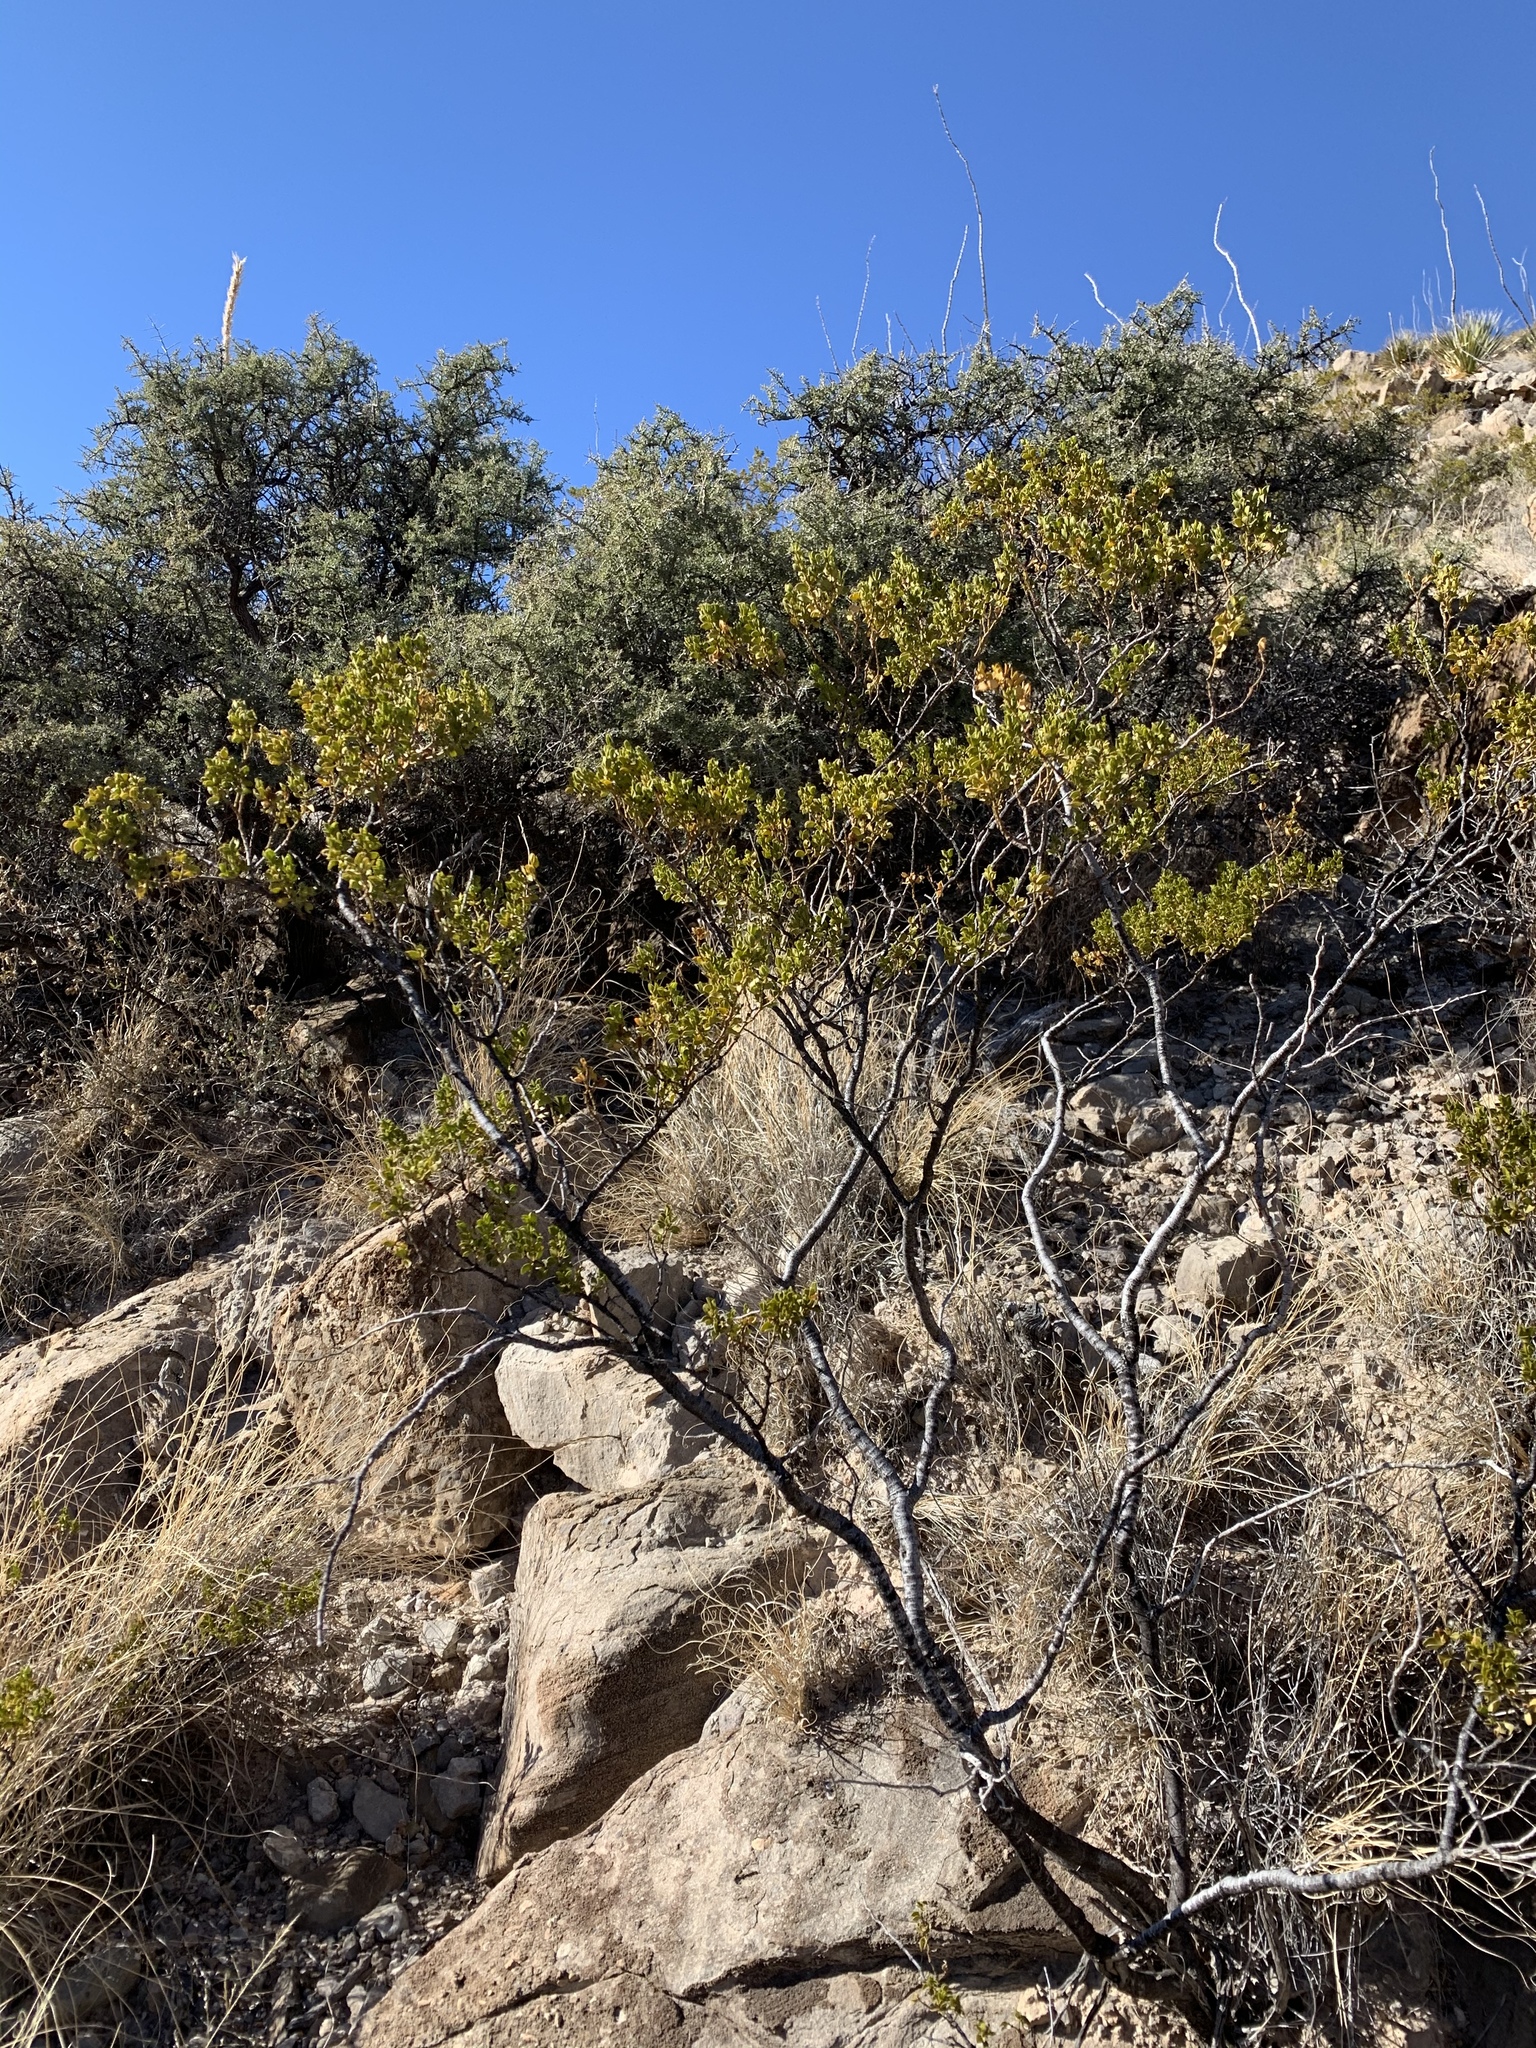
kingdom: Plantae
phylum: Tracheophyta
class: Magnoliopsida
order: Zygophyllales
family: Zygophyllaceae
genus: Larrea
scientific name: Larrea tridentata
